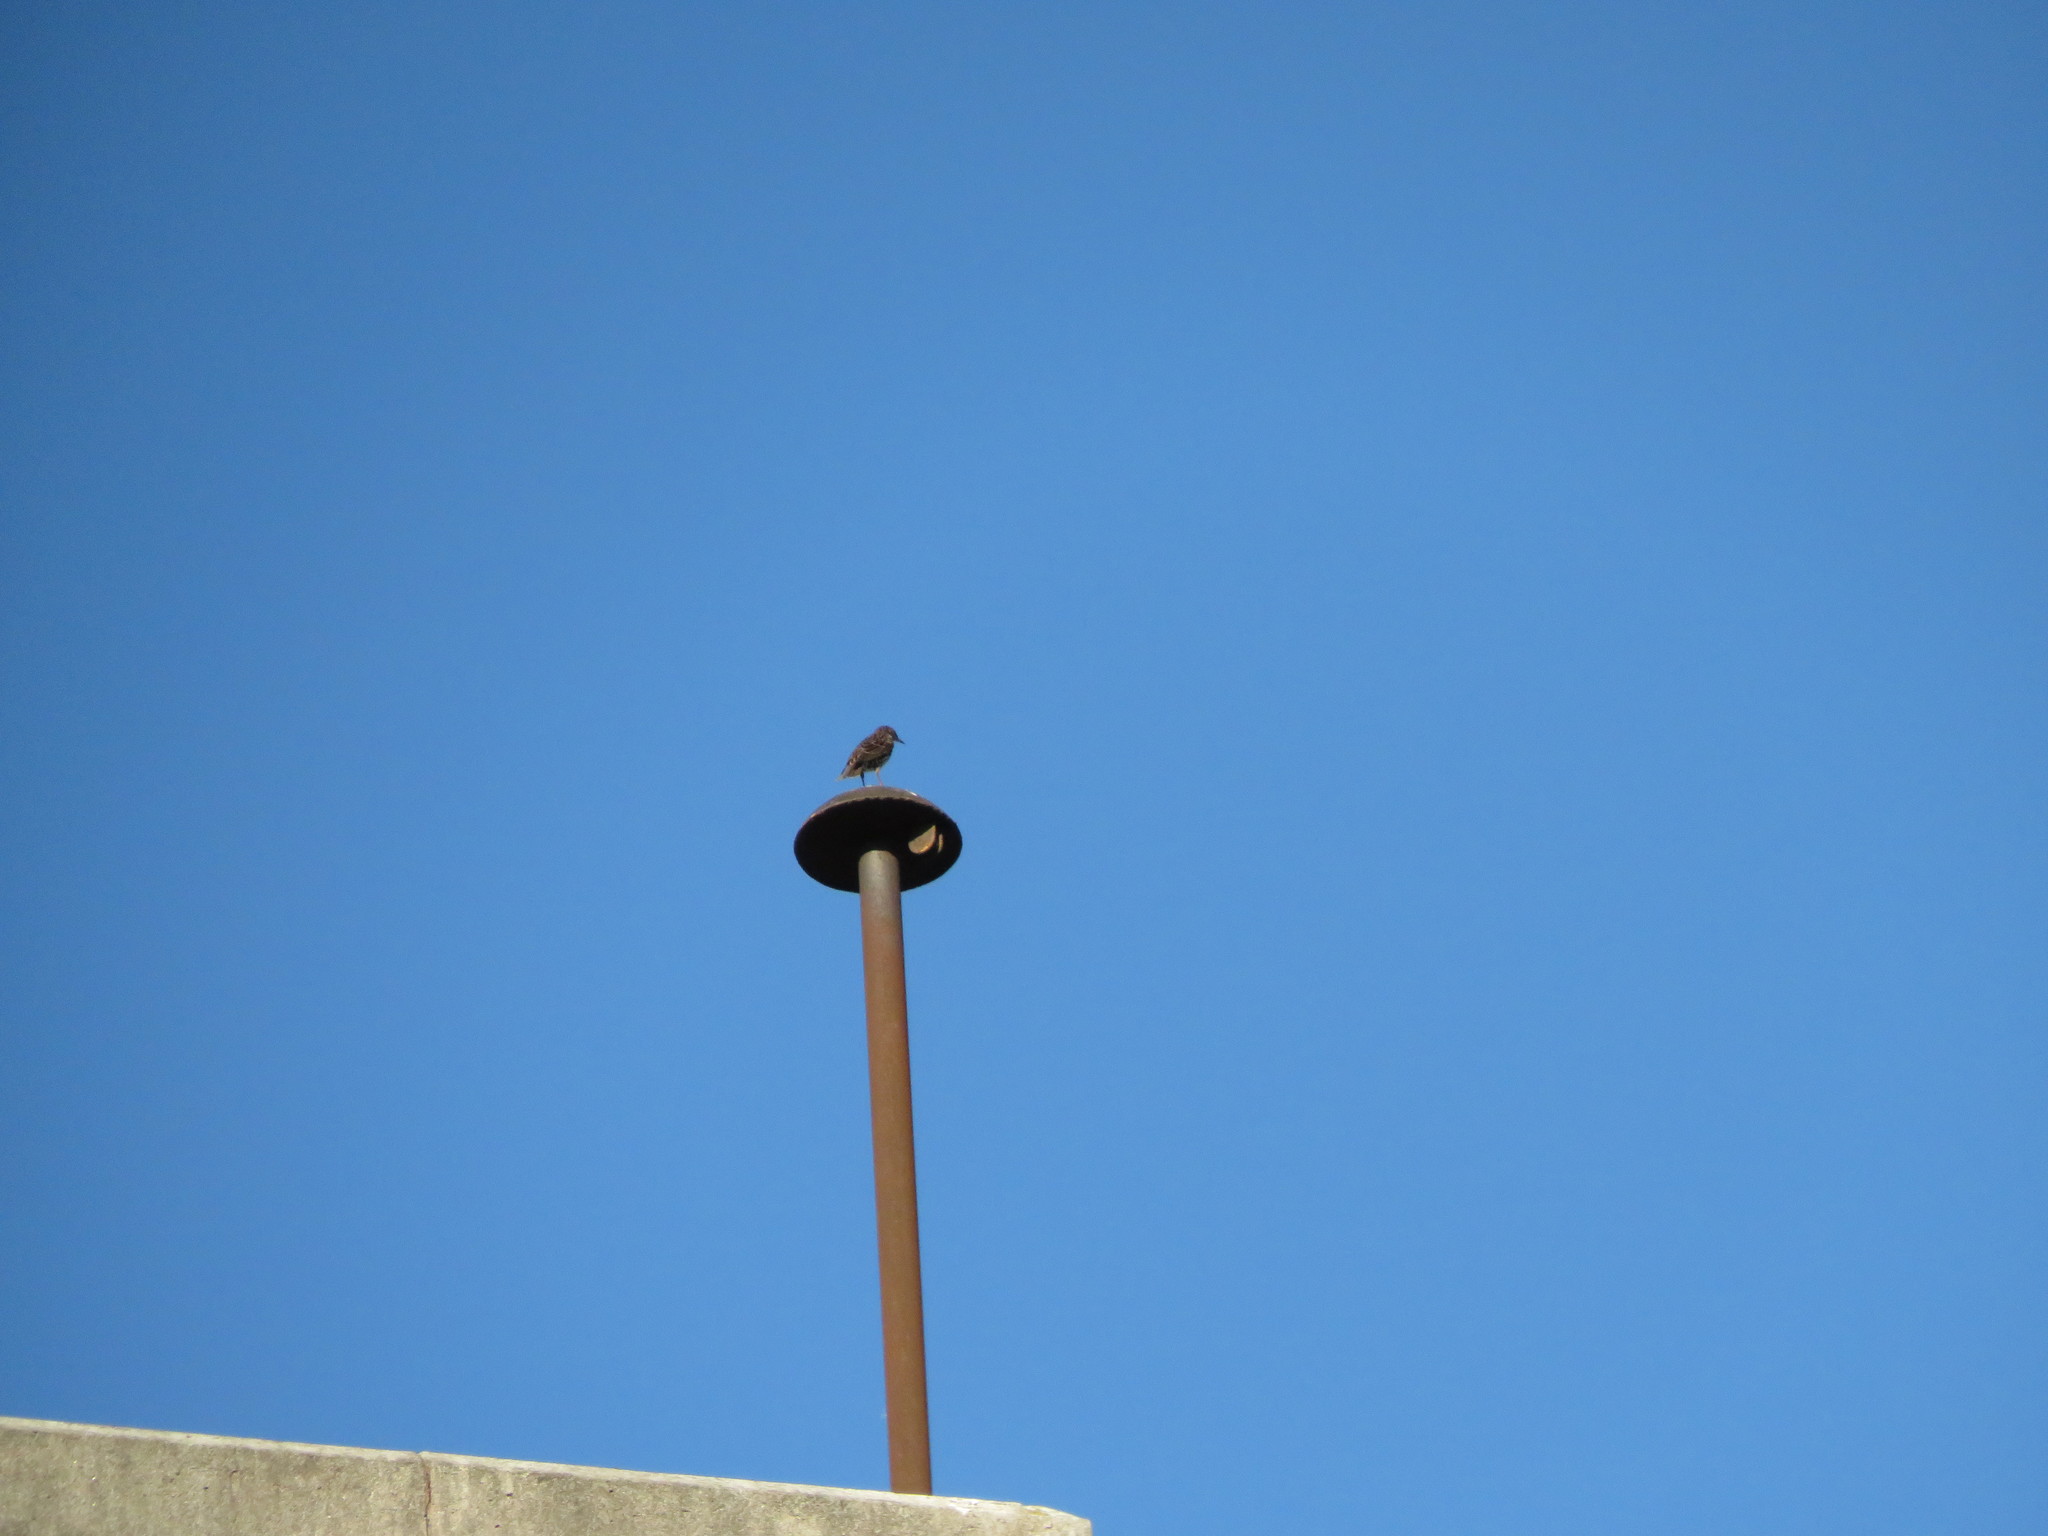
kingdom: Animalia
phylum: Chordata
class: Aves
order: Passeriformes
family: Sturnidae
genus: Sturnus
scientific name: Sturnus vulgaris
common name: Common starling
